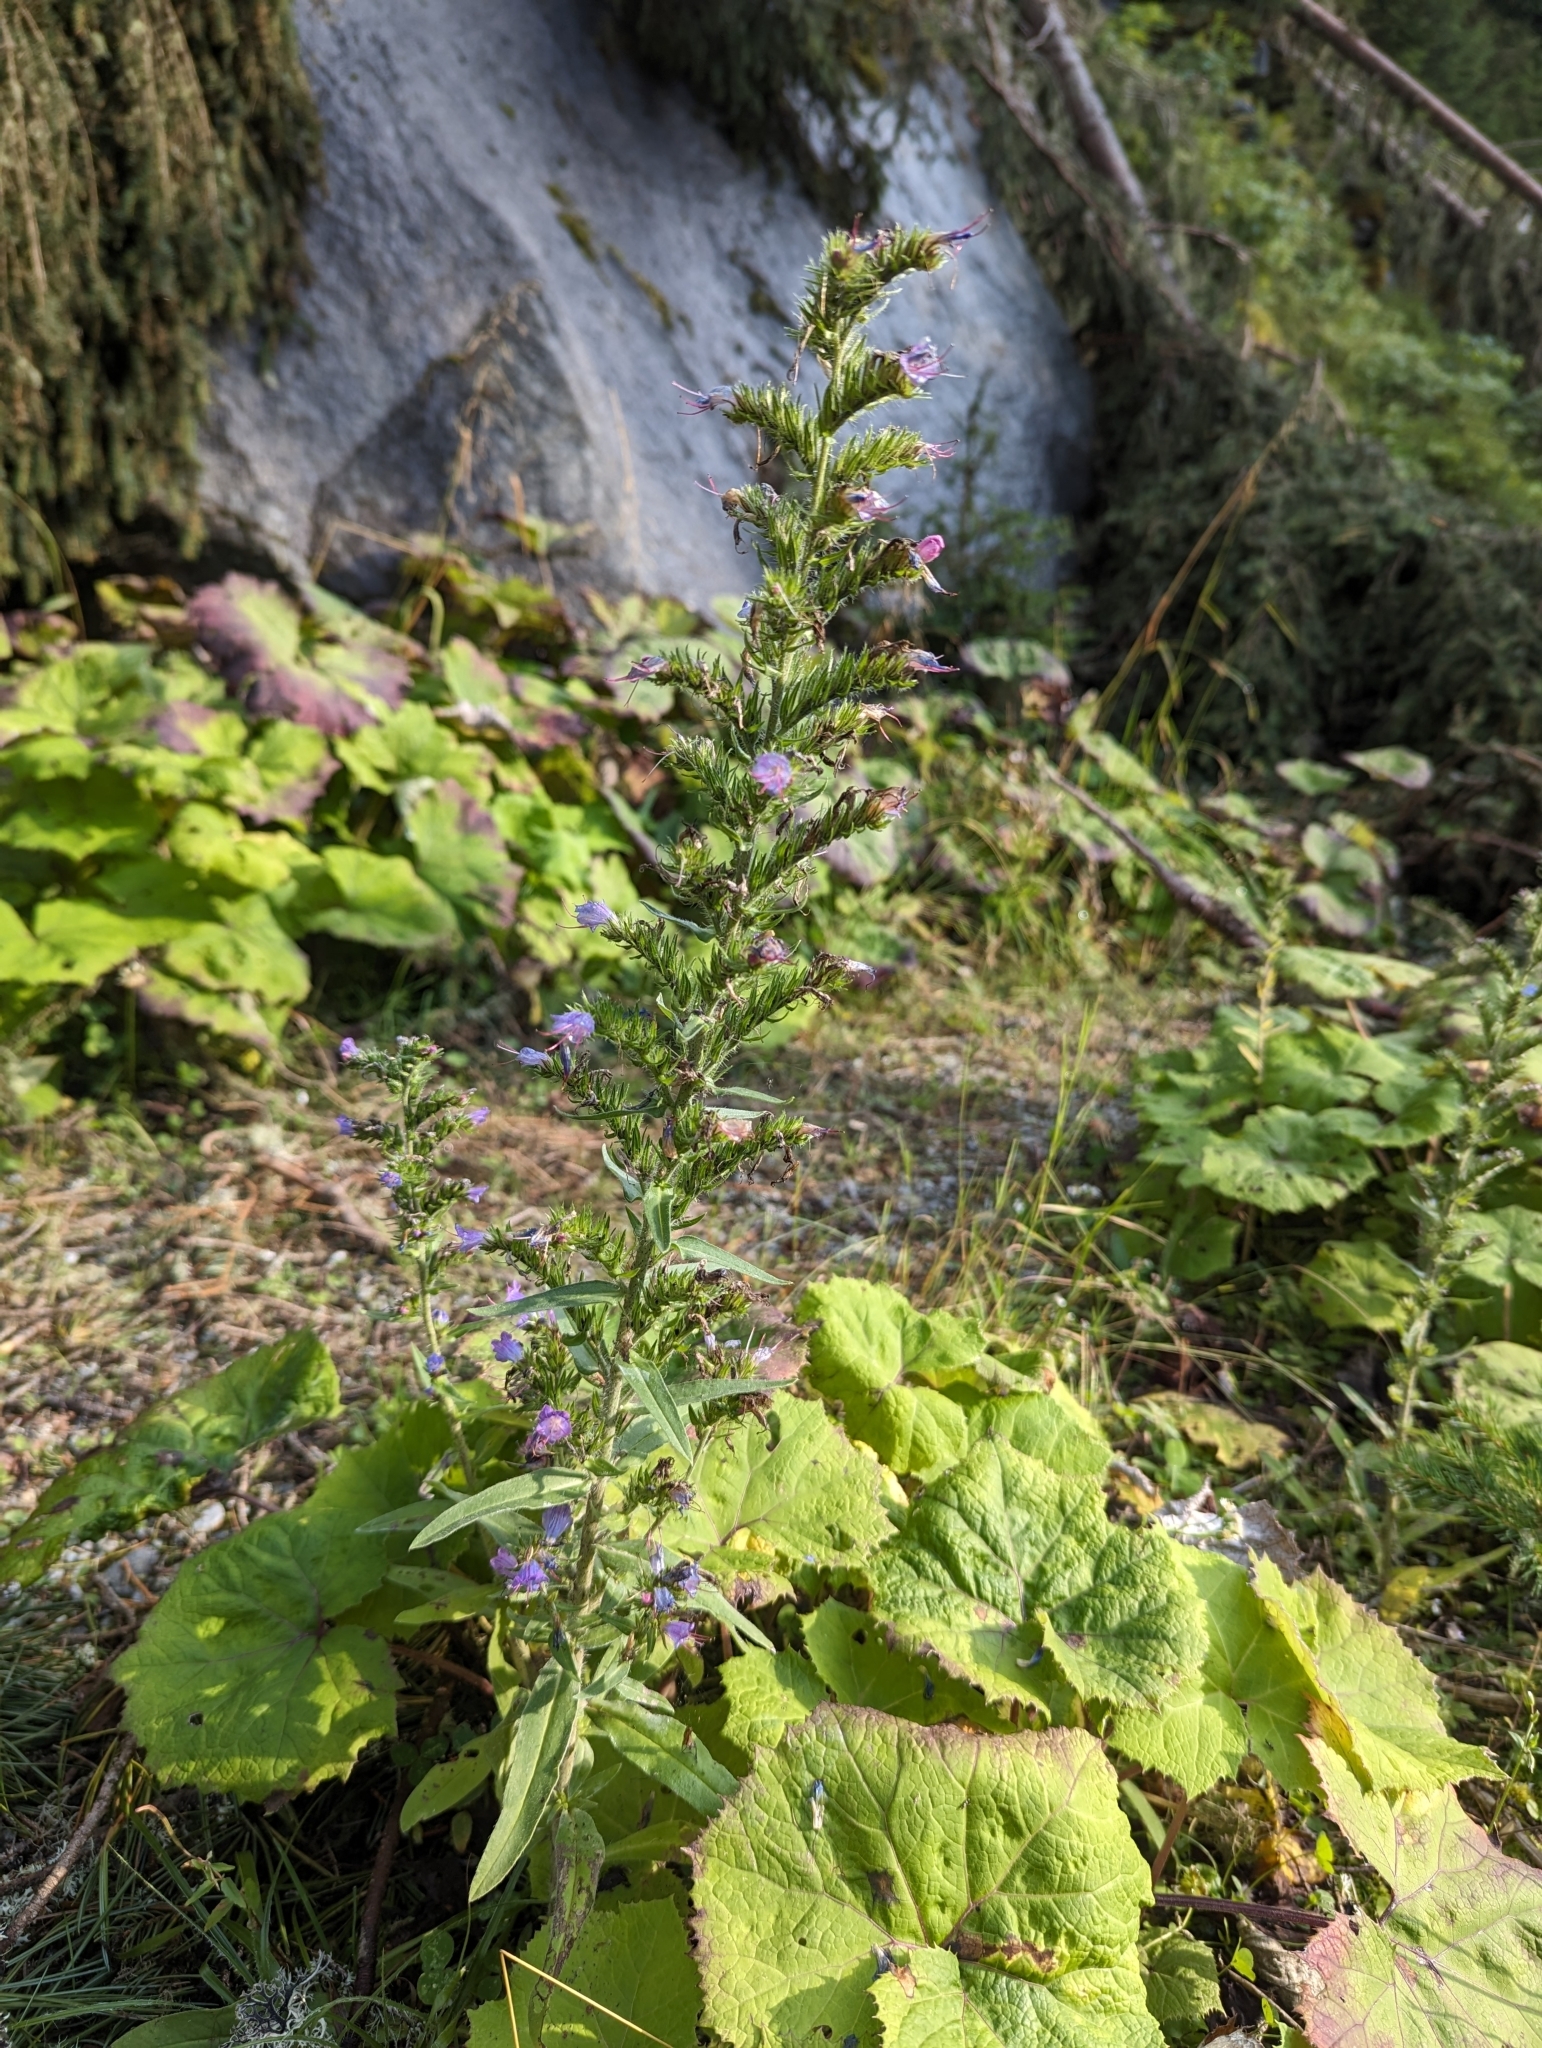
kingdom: Plantae
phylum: Tracheophyta
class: Magnoliopsida
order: Boraginales
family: Boraginaceae
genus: Echium
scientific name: Echium vulgare
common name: Common viper's bugloss
